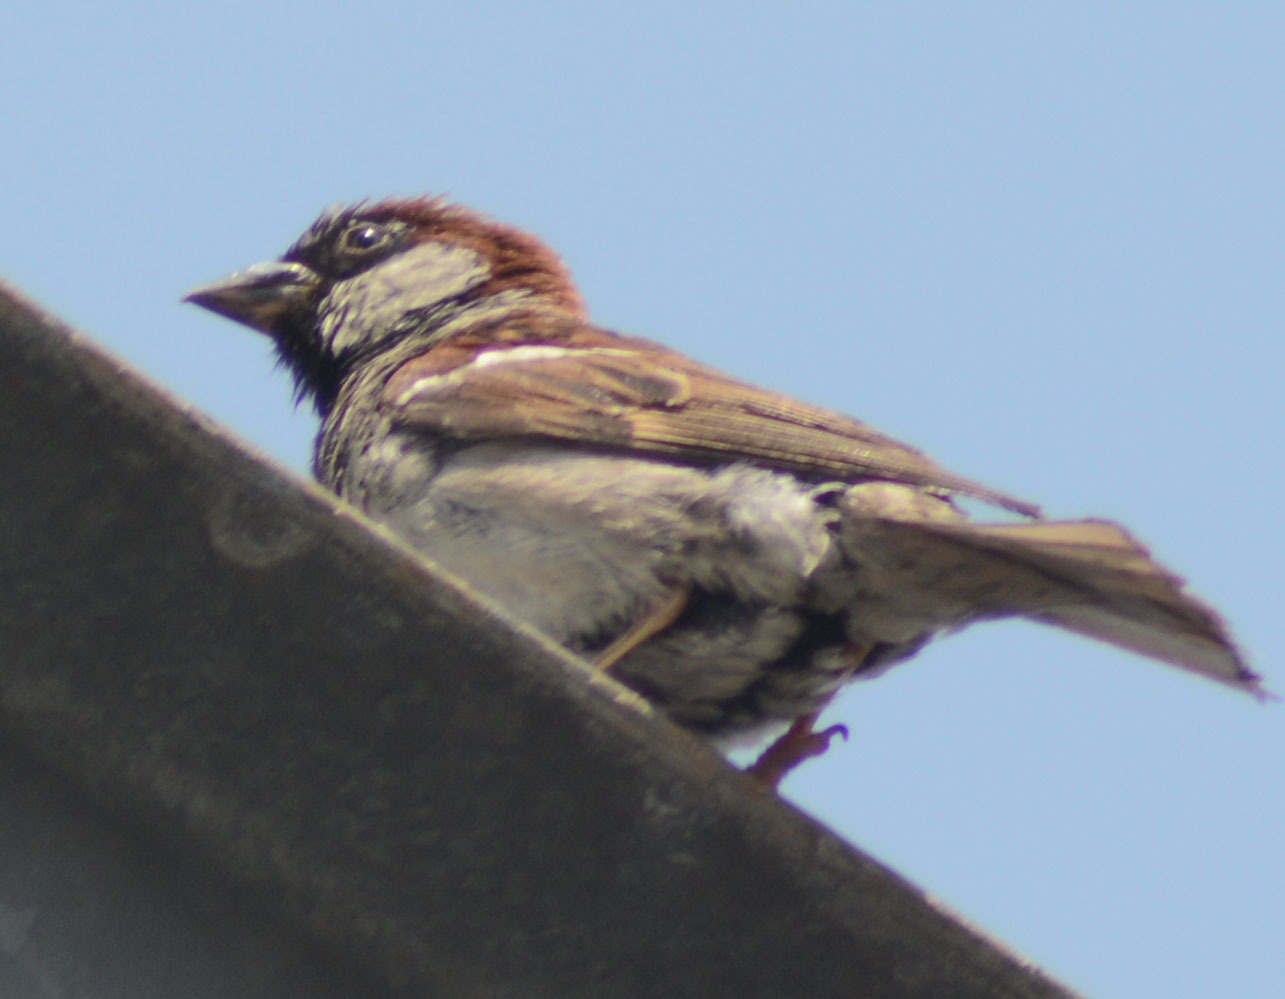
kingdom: Animalia
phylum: Chordata
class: Aves
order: Passeriformes
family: Passeridae
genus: Passer
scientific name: Passer domesticus
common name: House sparrow
